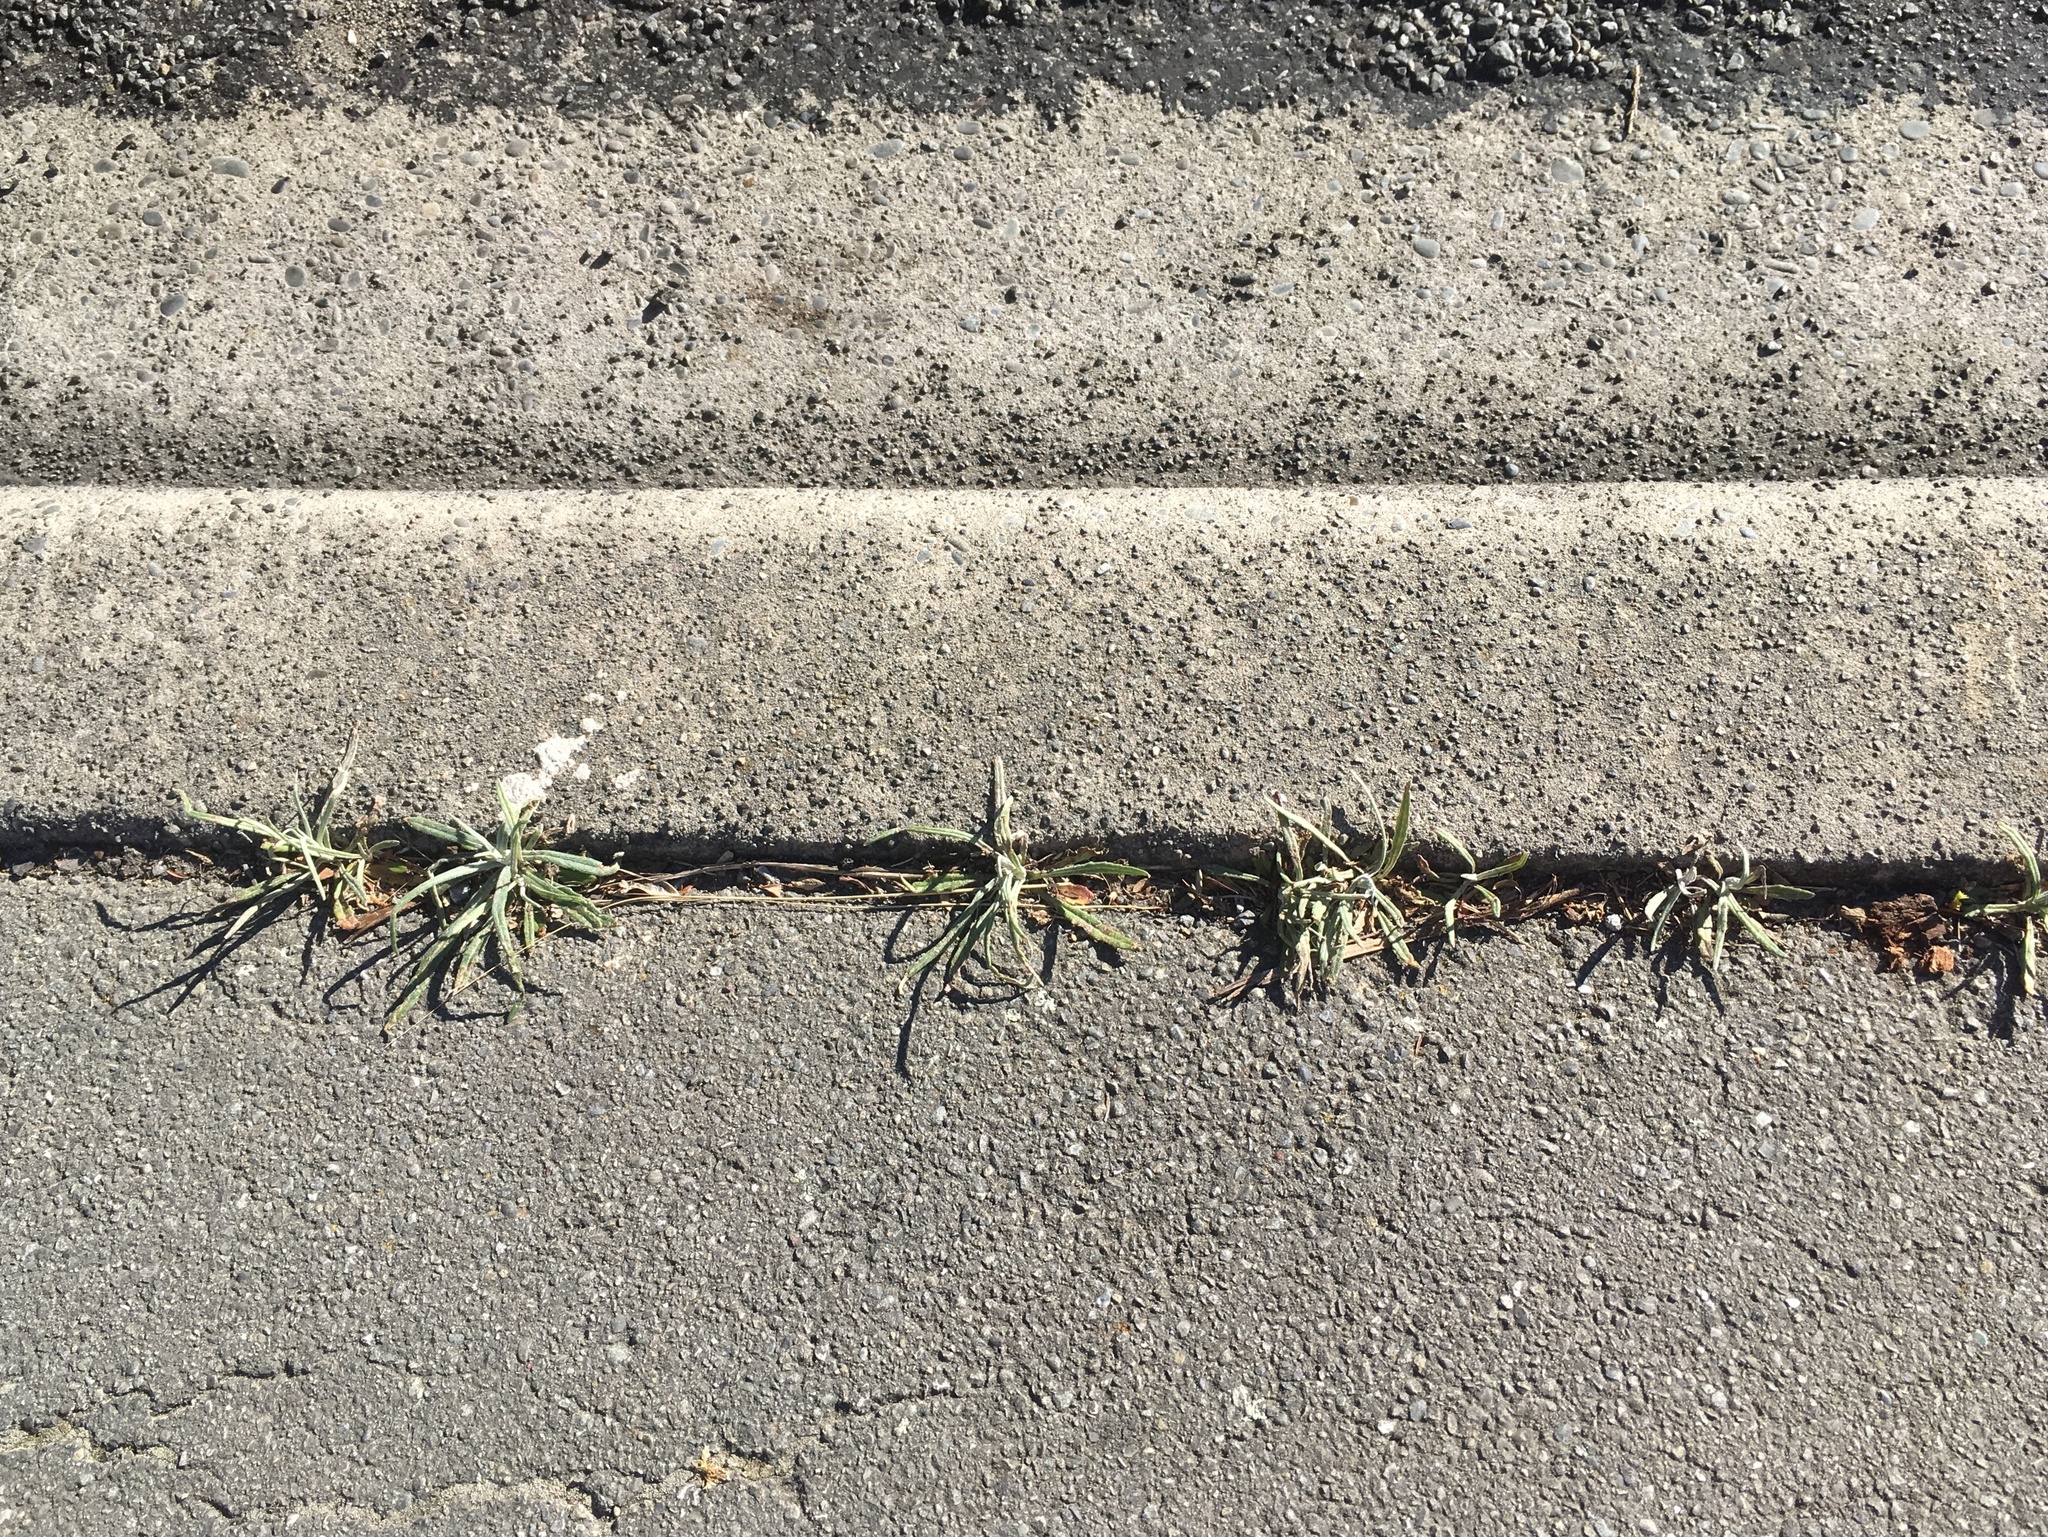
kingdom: Plantae
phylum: Tracheophyta
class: Magnoliopsida
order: Asterales
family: Asteraceae
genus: Senecio
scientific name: Senecio quadridentatus
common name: Cotton fireweed
